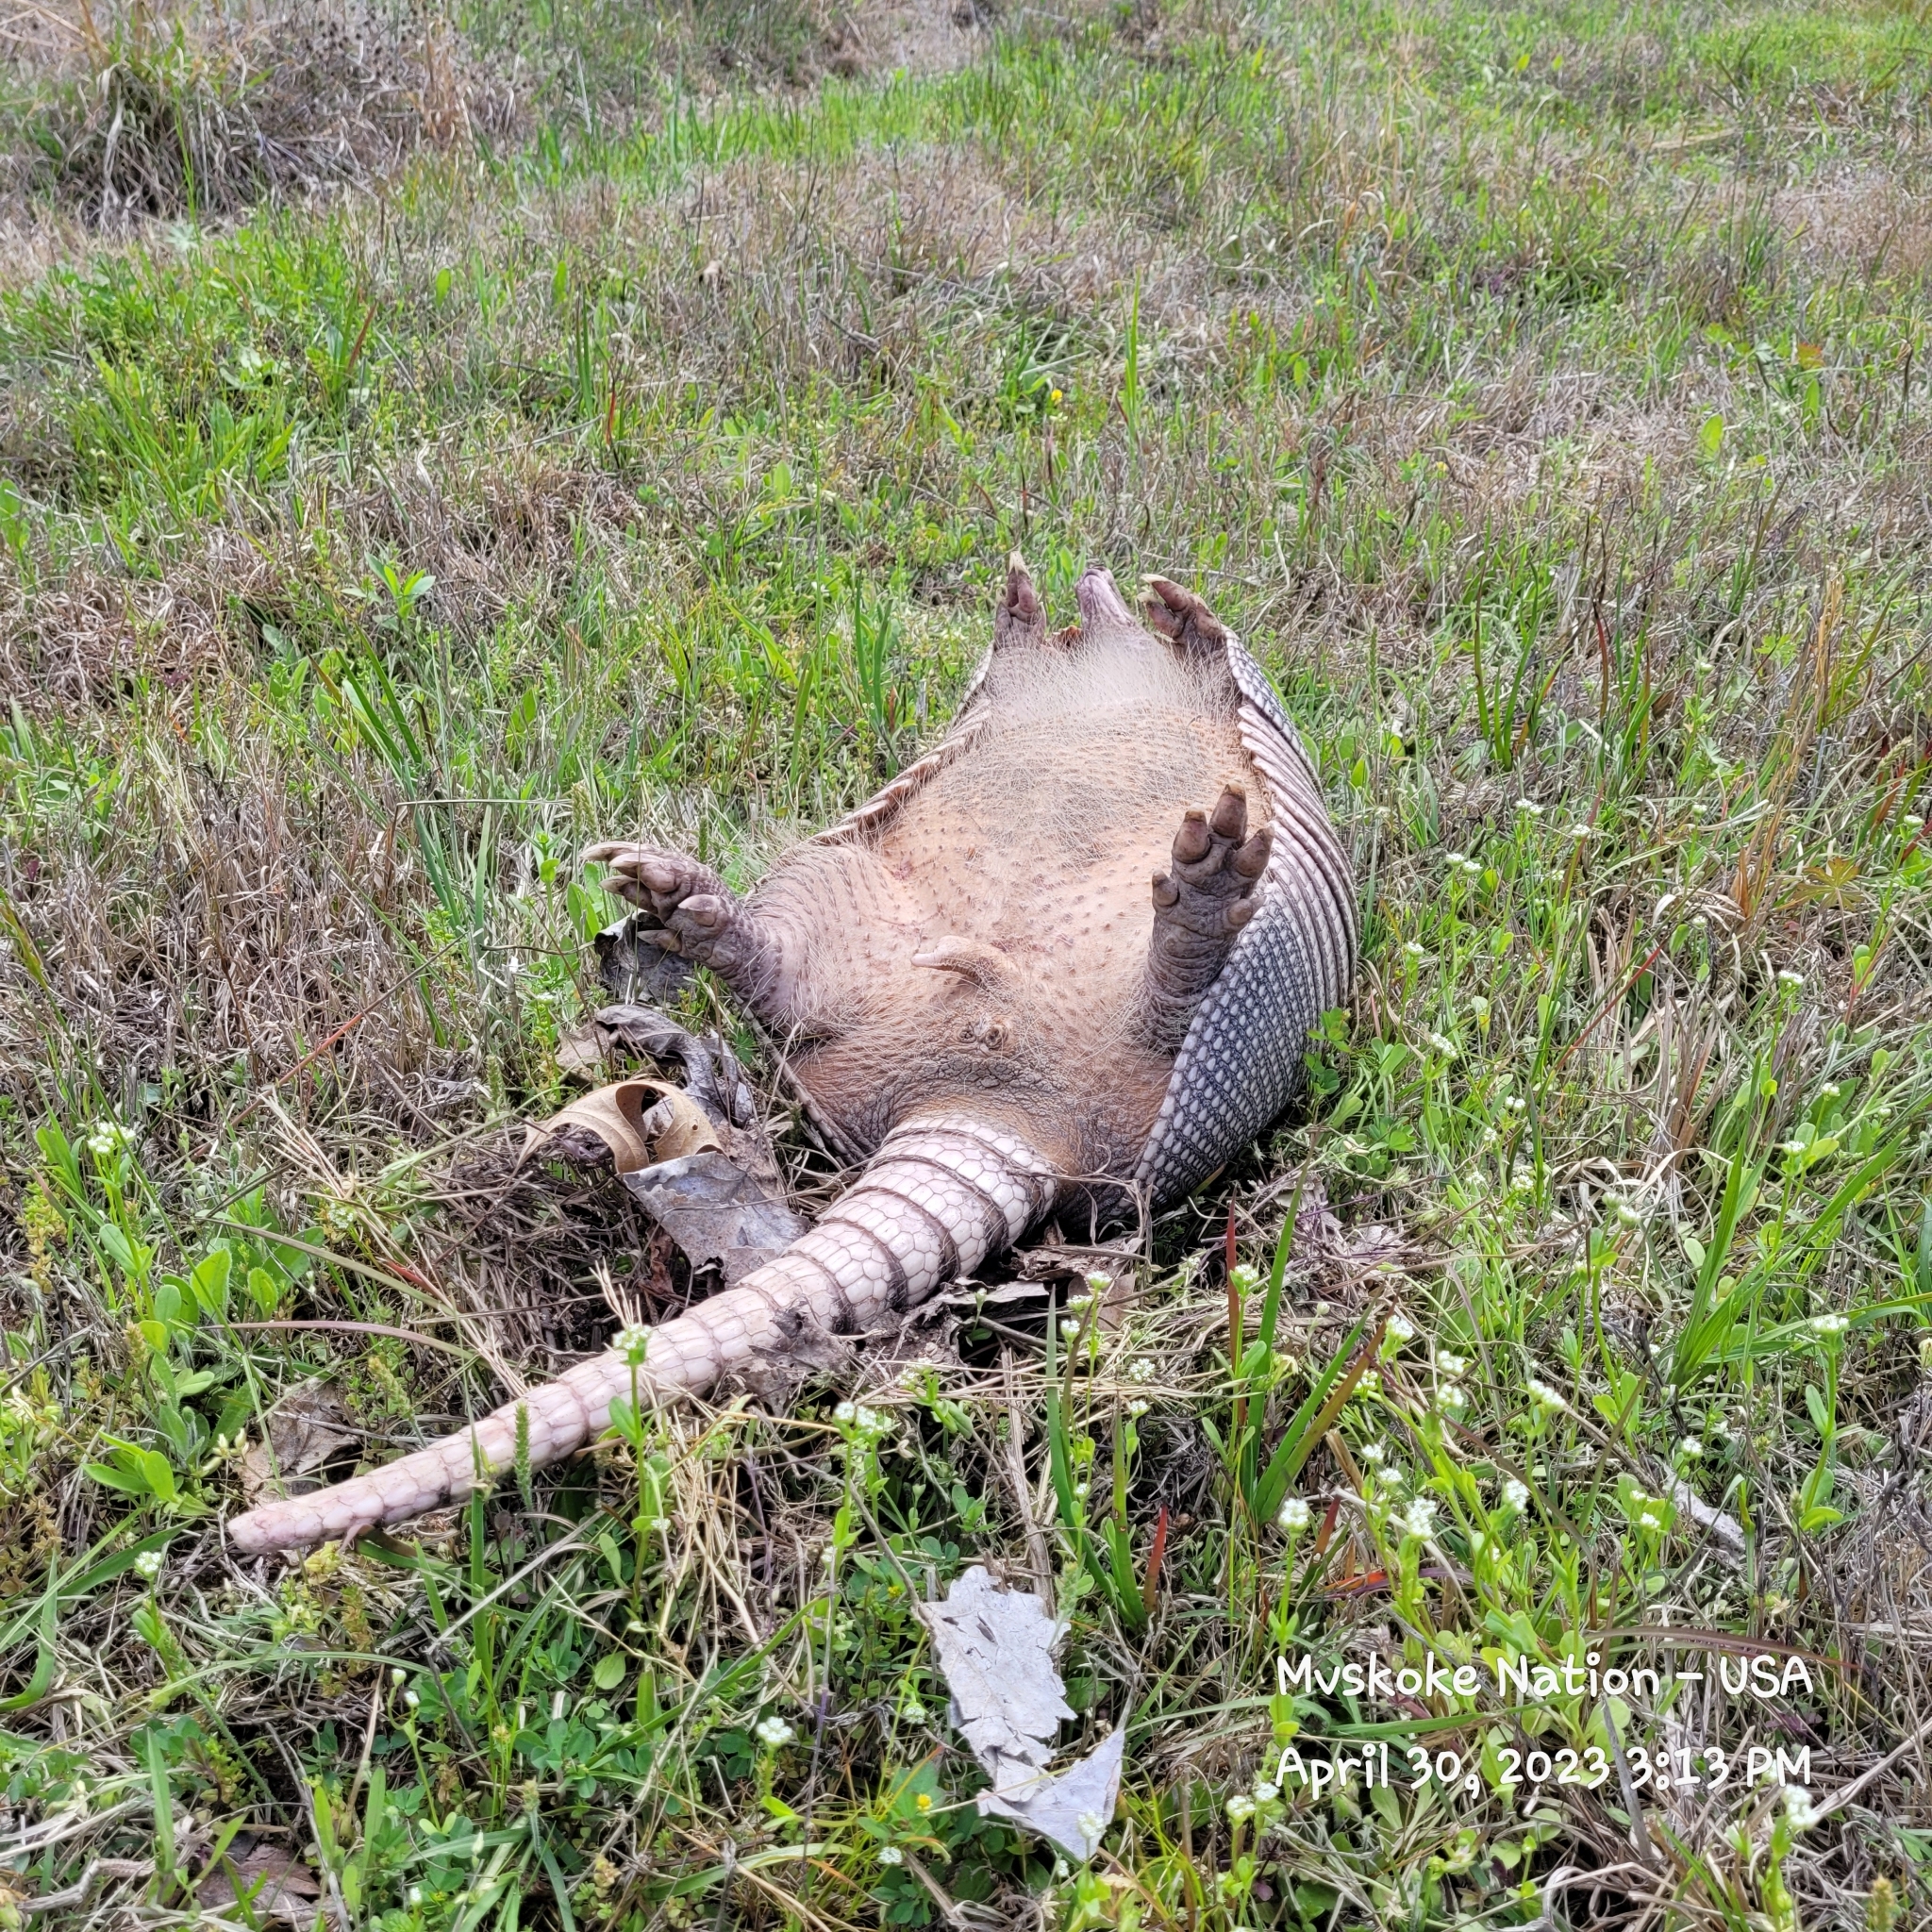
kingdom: Animalia
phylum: Chordata
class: Mammalia
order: Cingulata
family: Dasypodidae
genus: Dasypus
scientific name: Dasypus novemcinctus
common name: Nine-banded armadillo
